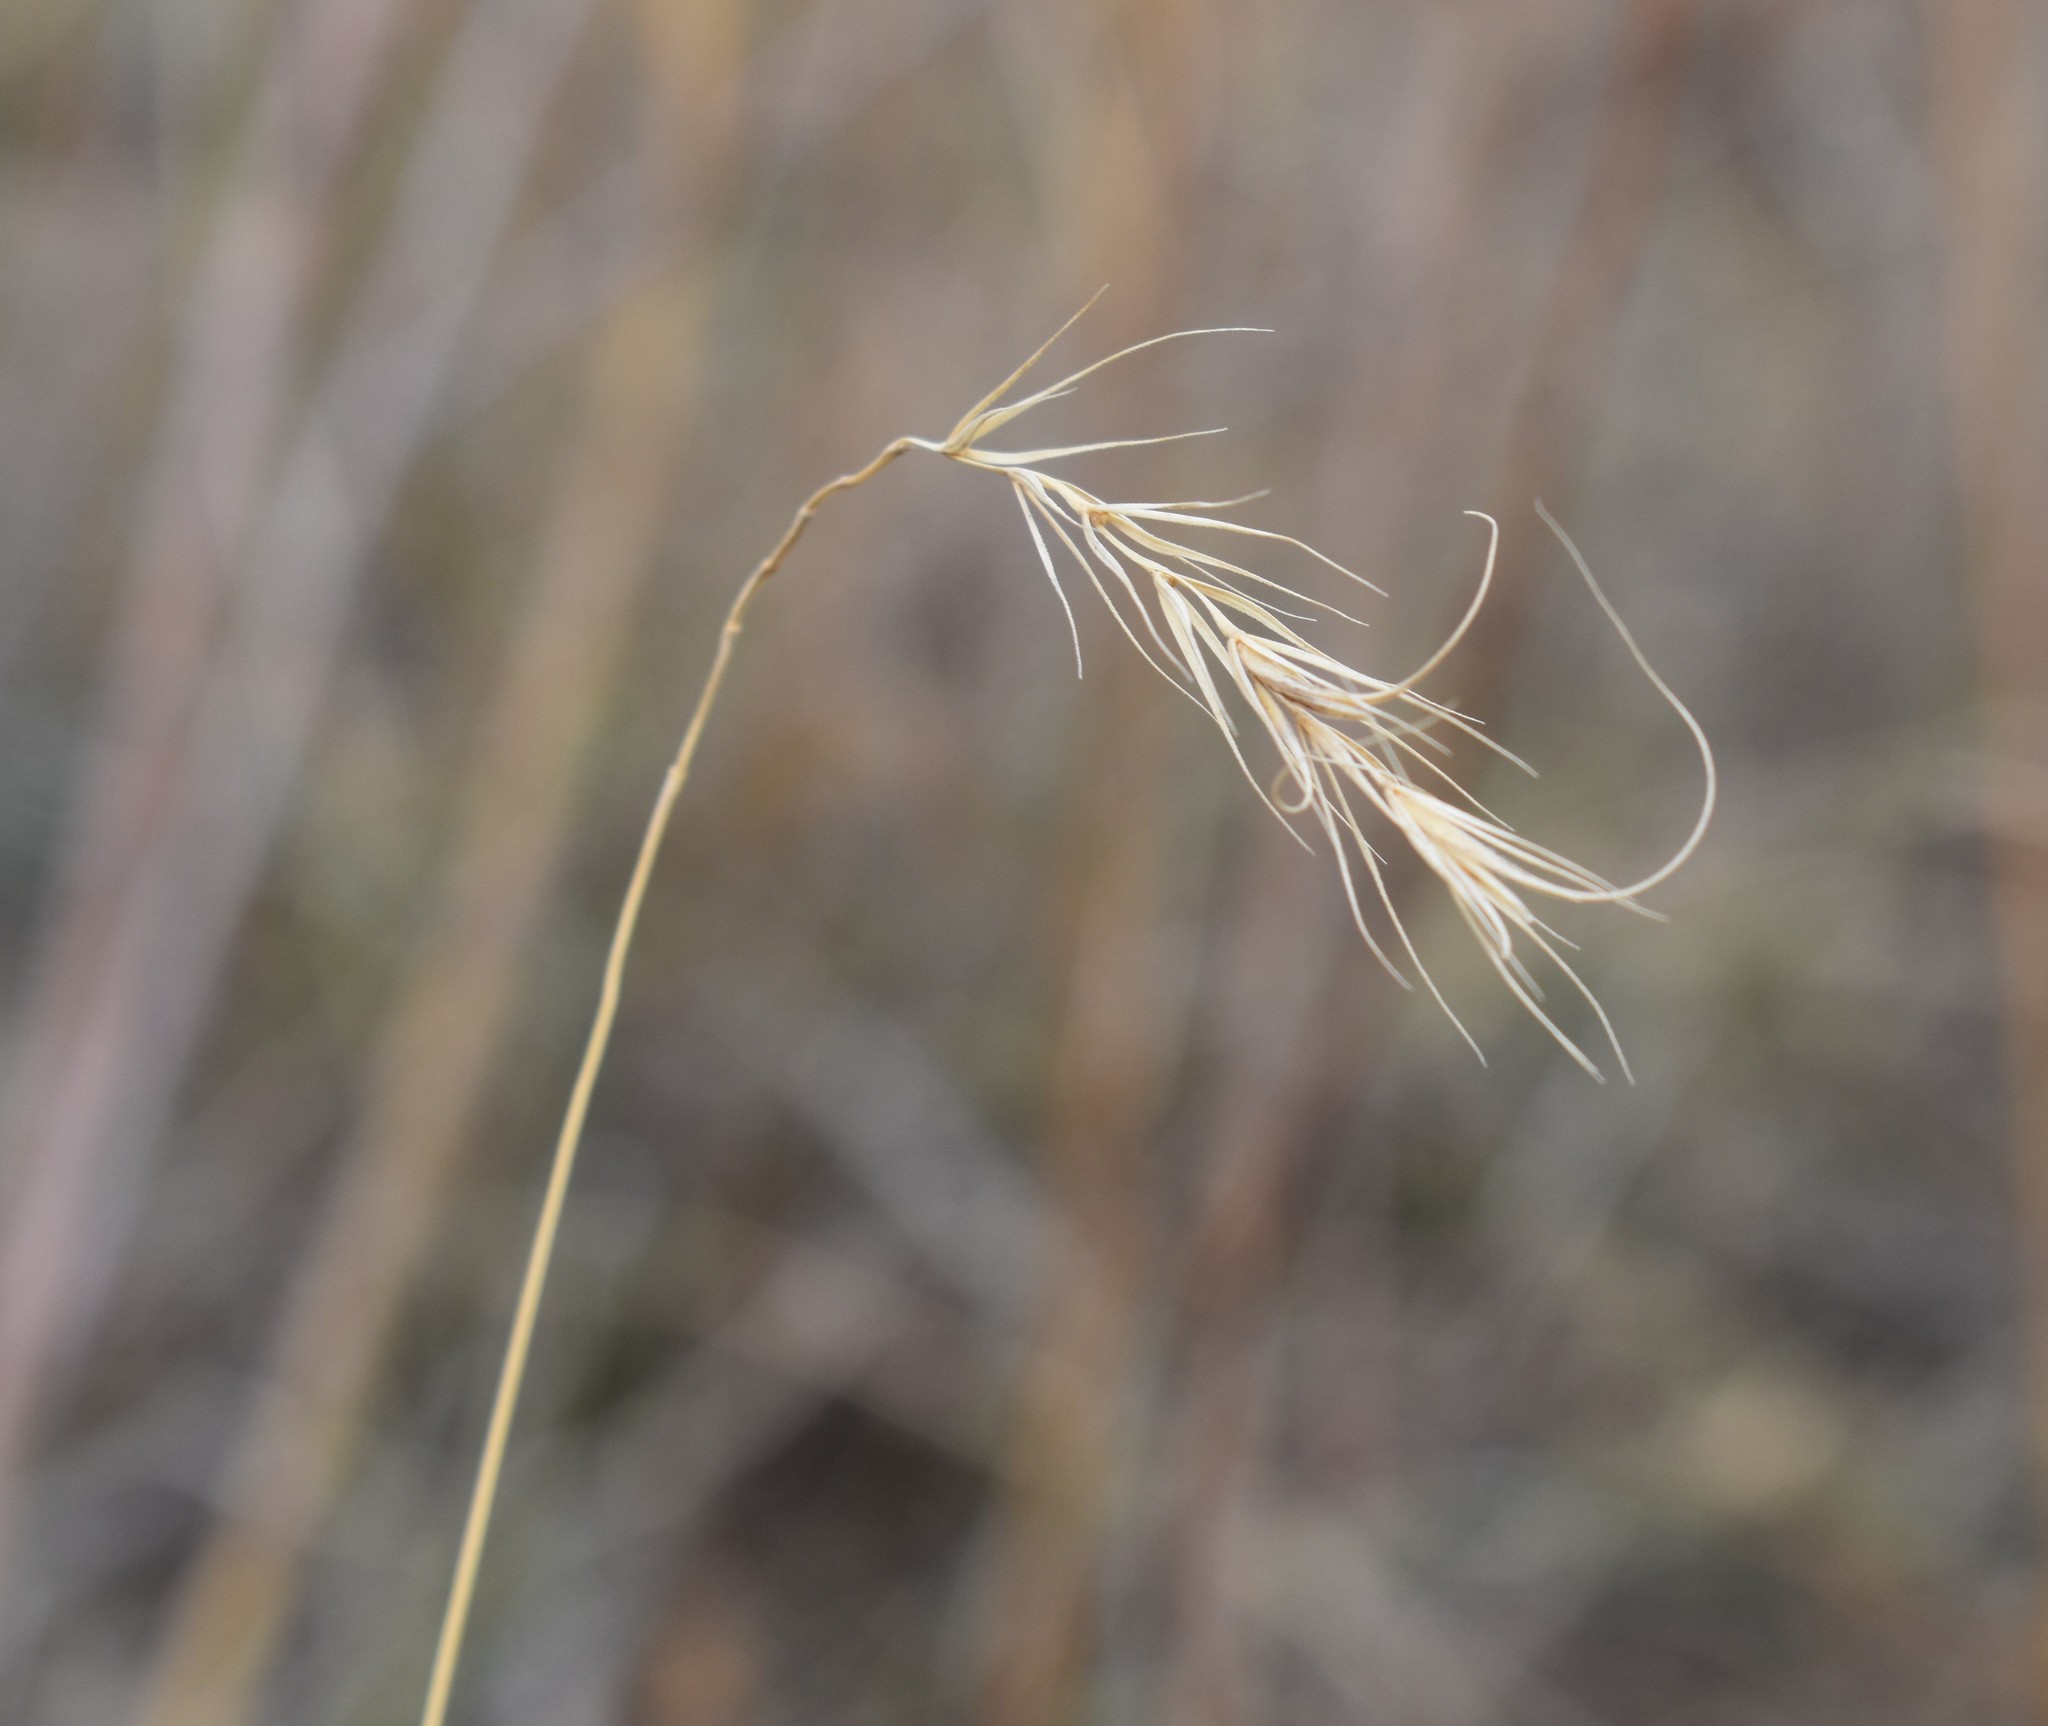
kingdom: Plantae
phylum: Tracheophyta
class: Liliopsida
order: Poales
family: Poaceae
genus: Elymus
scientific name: Elymus canadensis
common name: Canada wild rye
